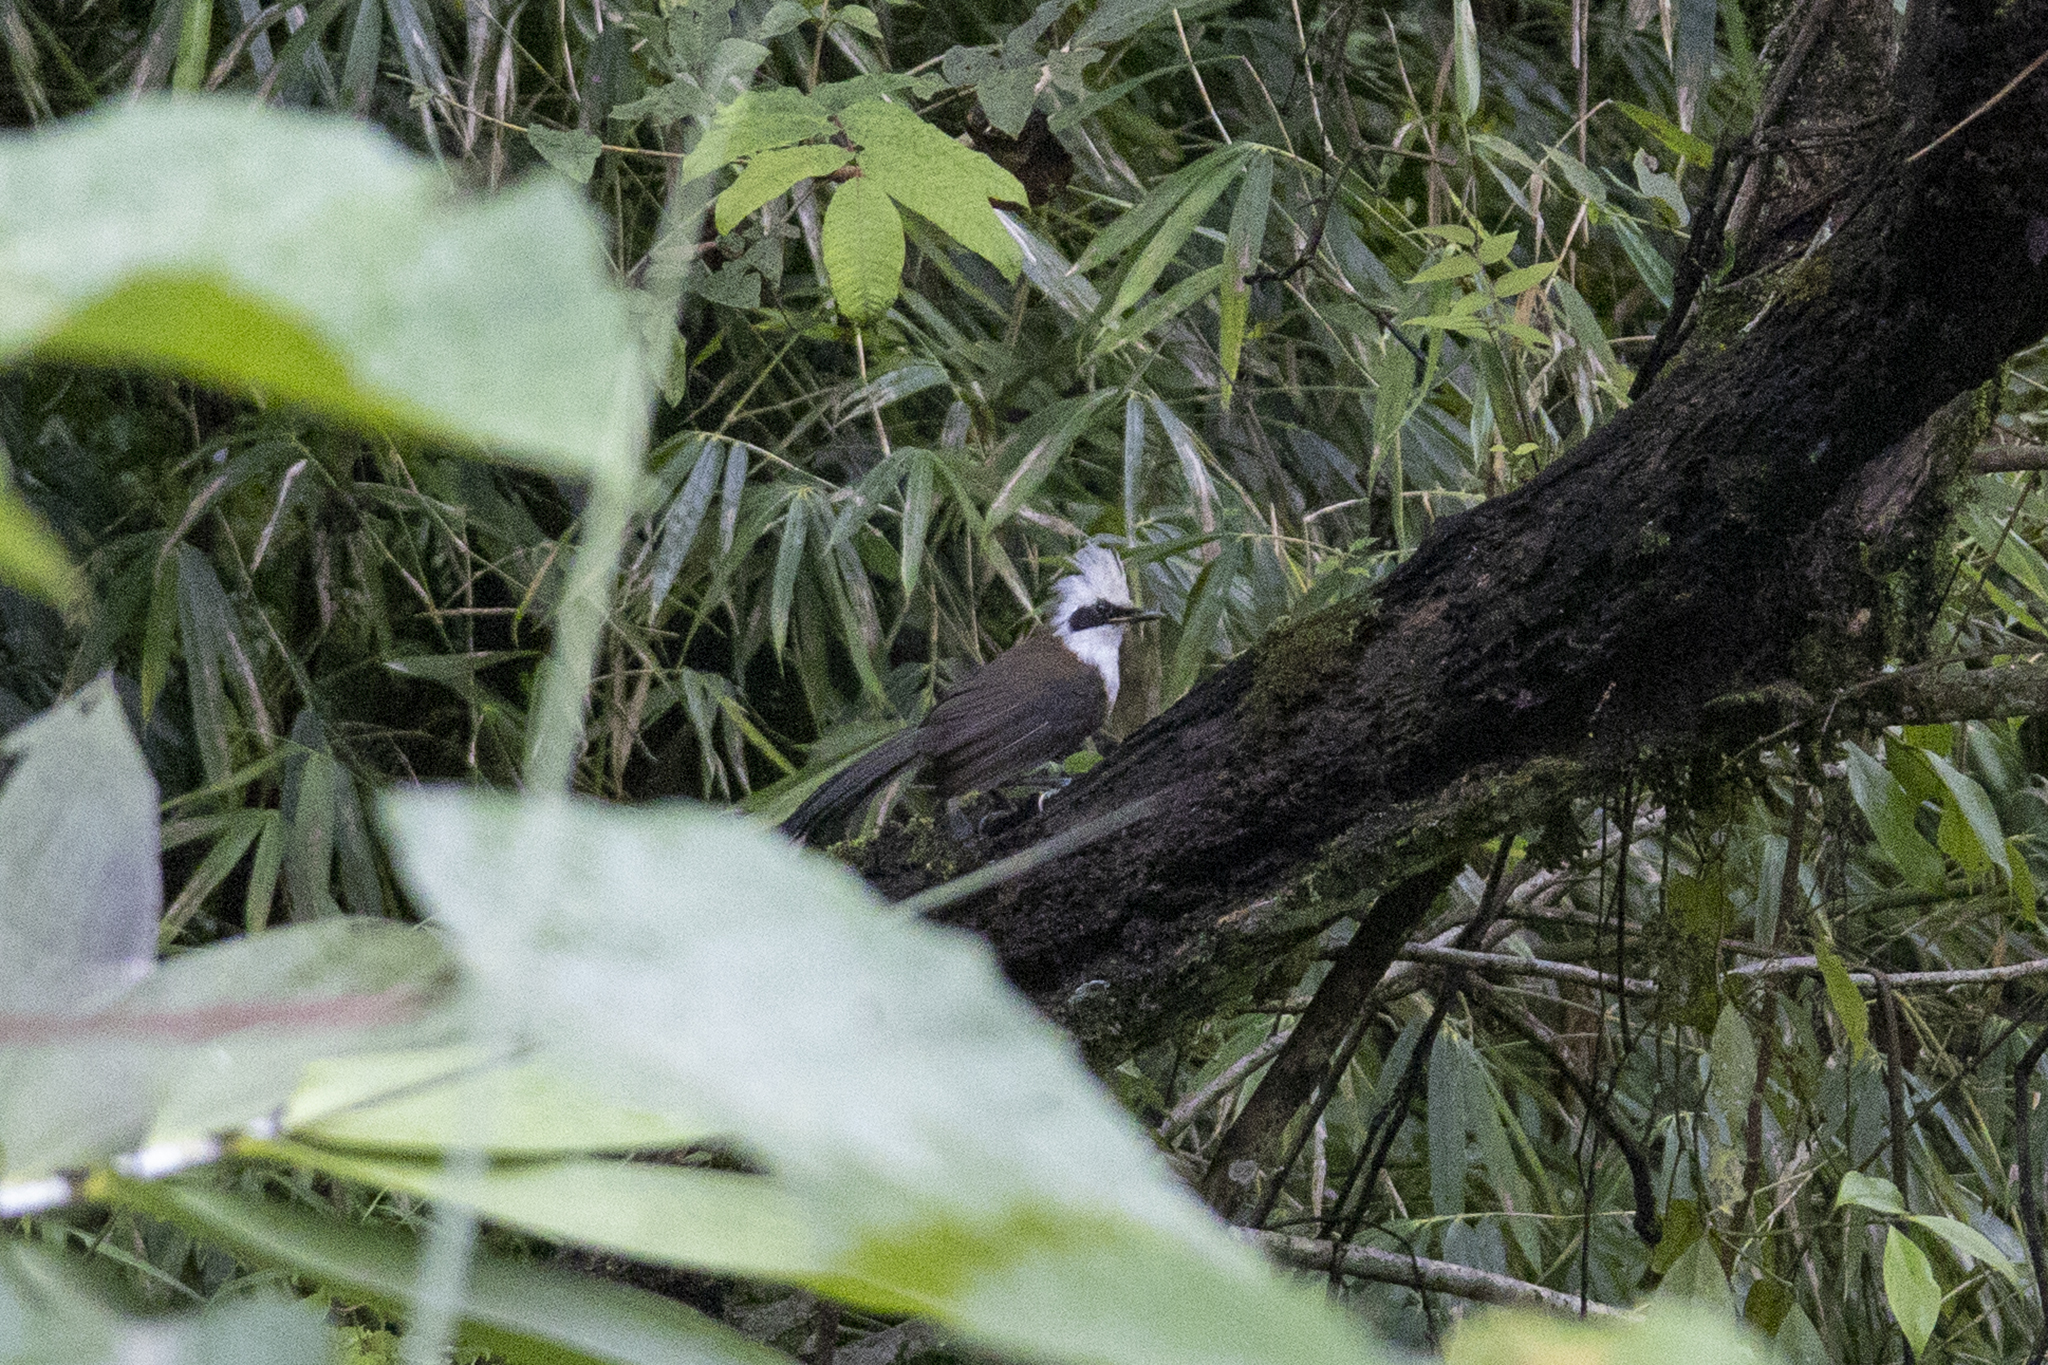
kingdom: Animalia
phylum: Chordata
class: Aves
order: Passeriformes
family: Leiothrichidae
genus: Garrulax
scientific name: Garrulax leucolophus
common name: White-crested laughingthrush
